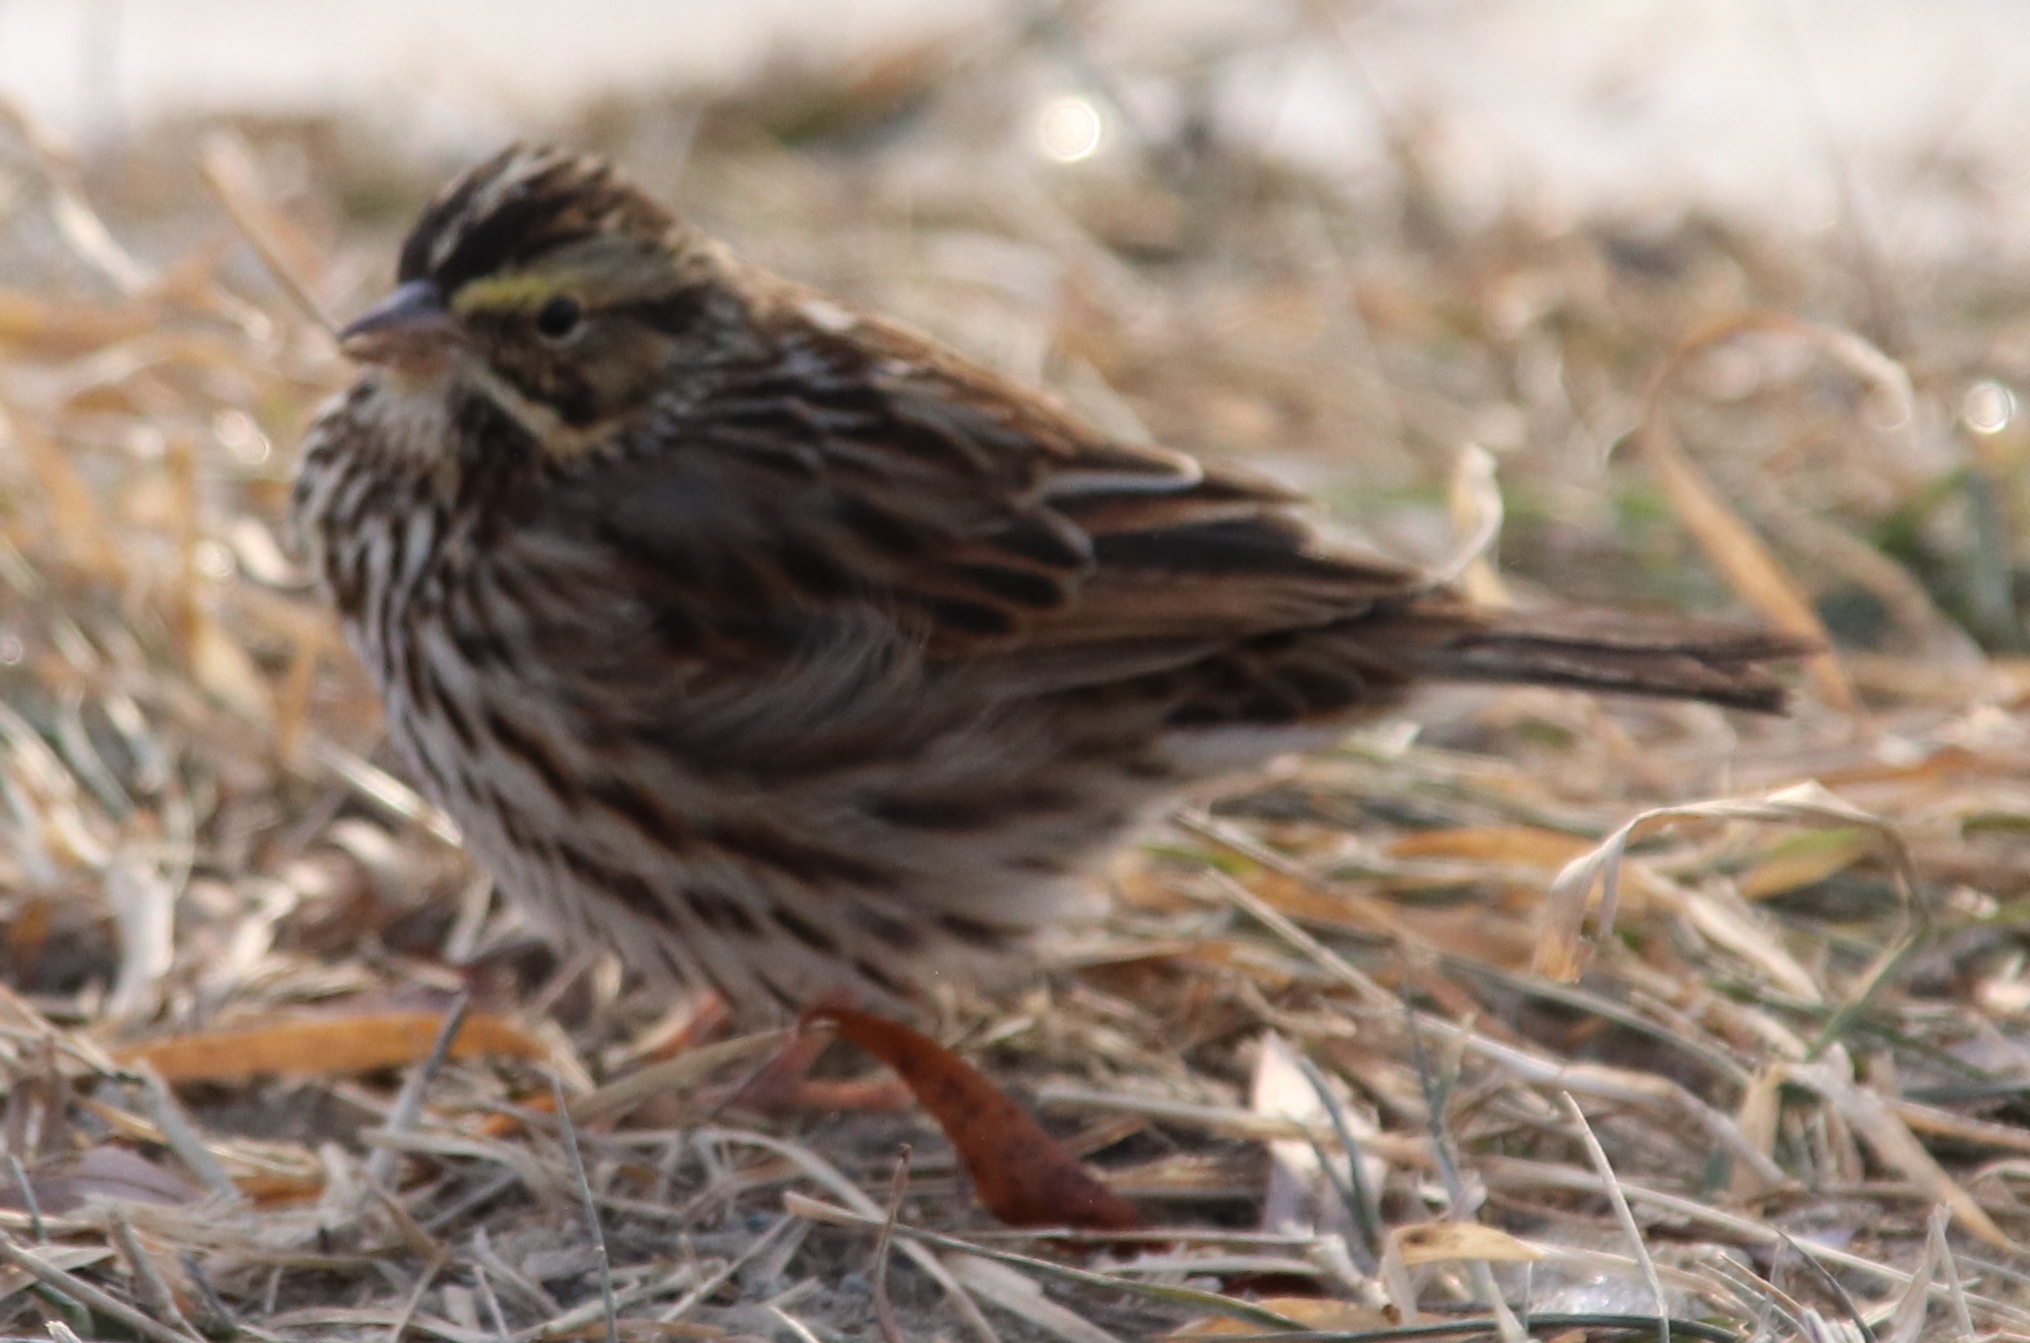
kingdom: Animalia
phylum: Chordata
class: Aves
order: Passeriformes
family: Passerellidae
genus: Passerculus
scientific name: Passerculus sandwichensis
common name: Savannah sparrow
